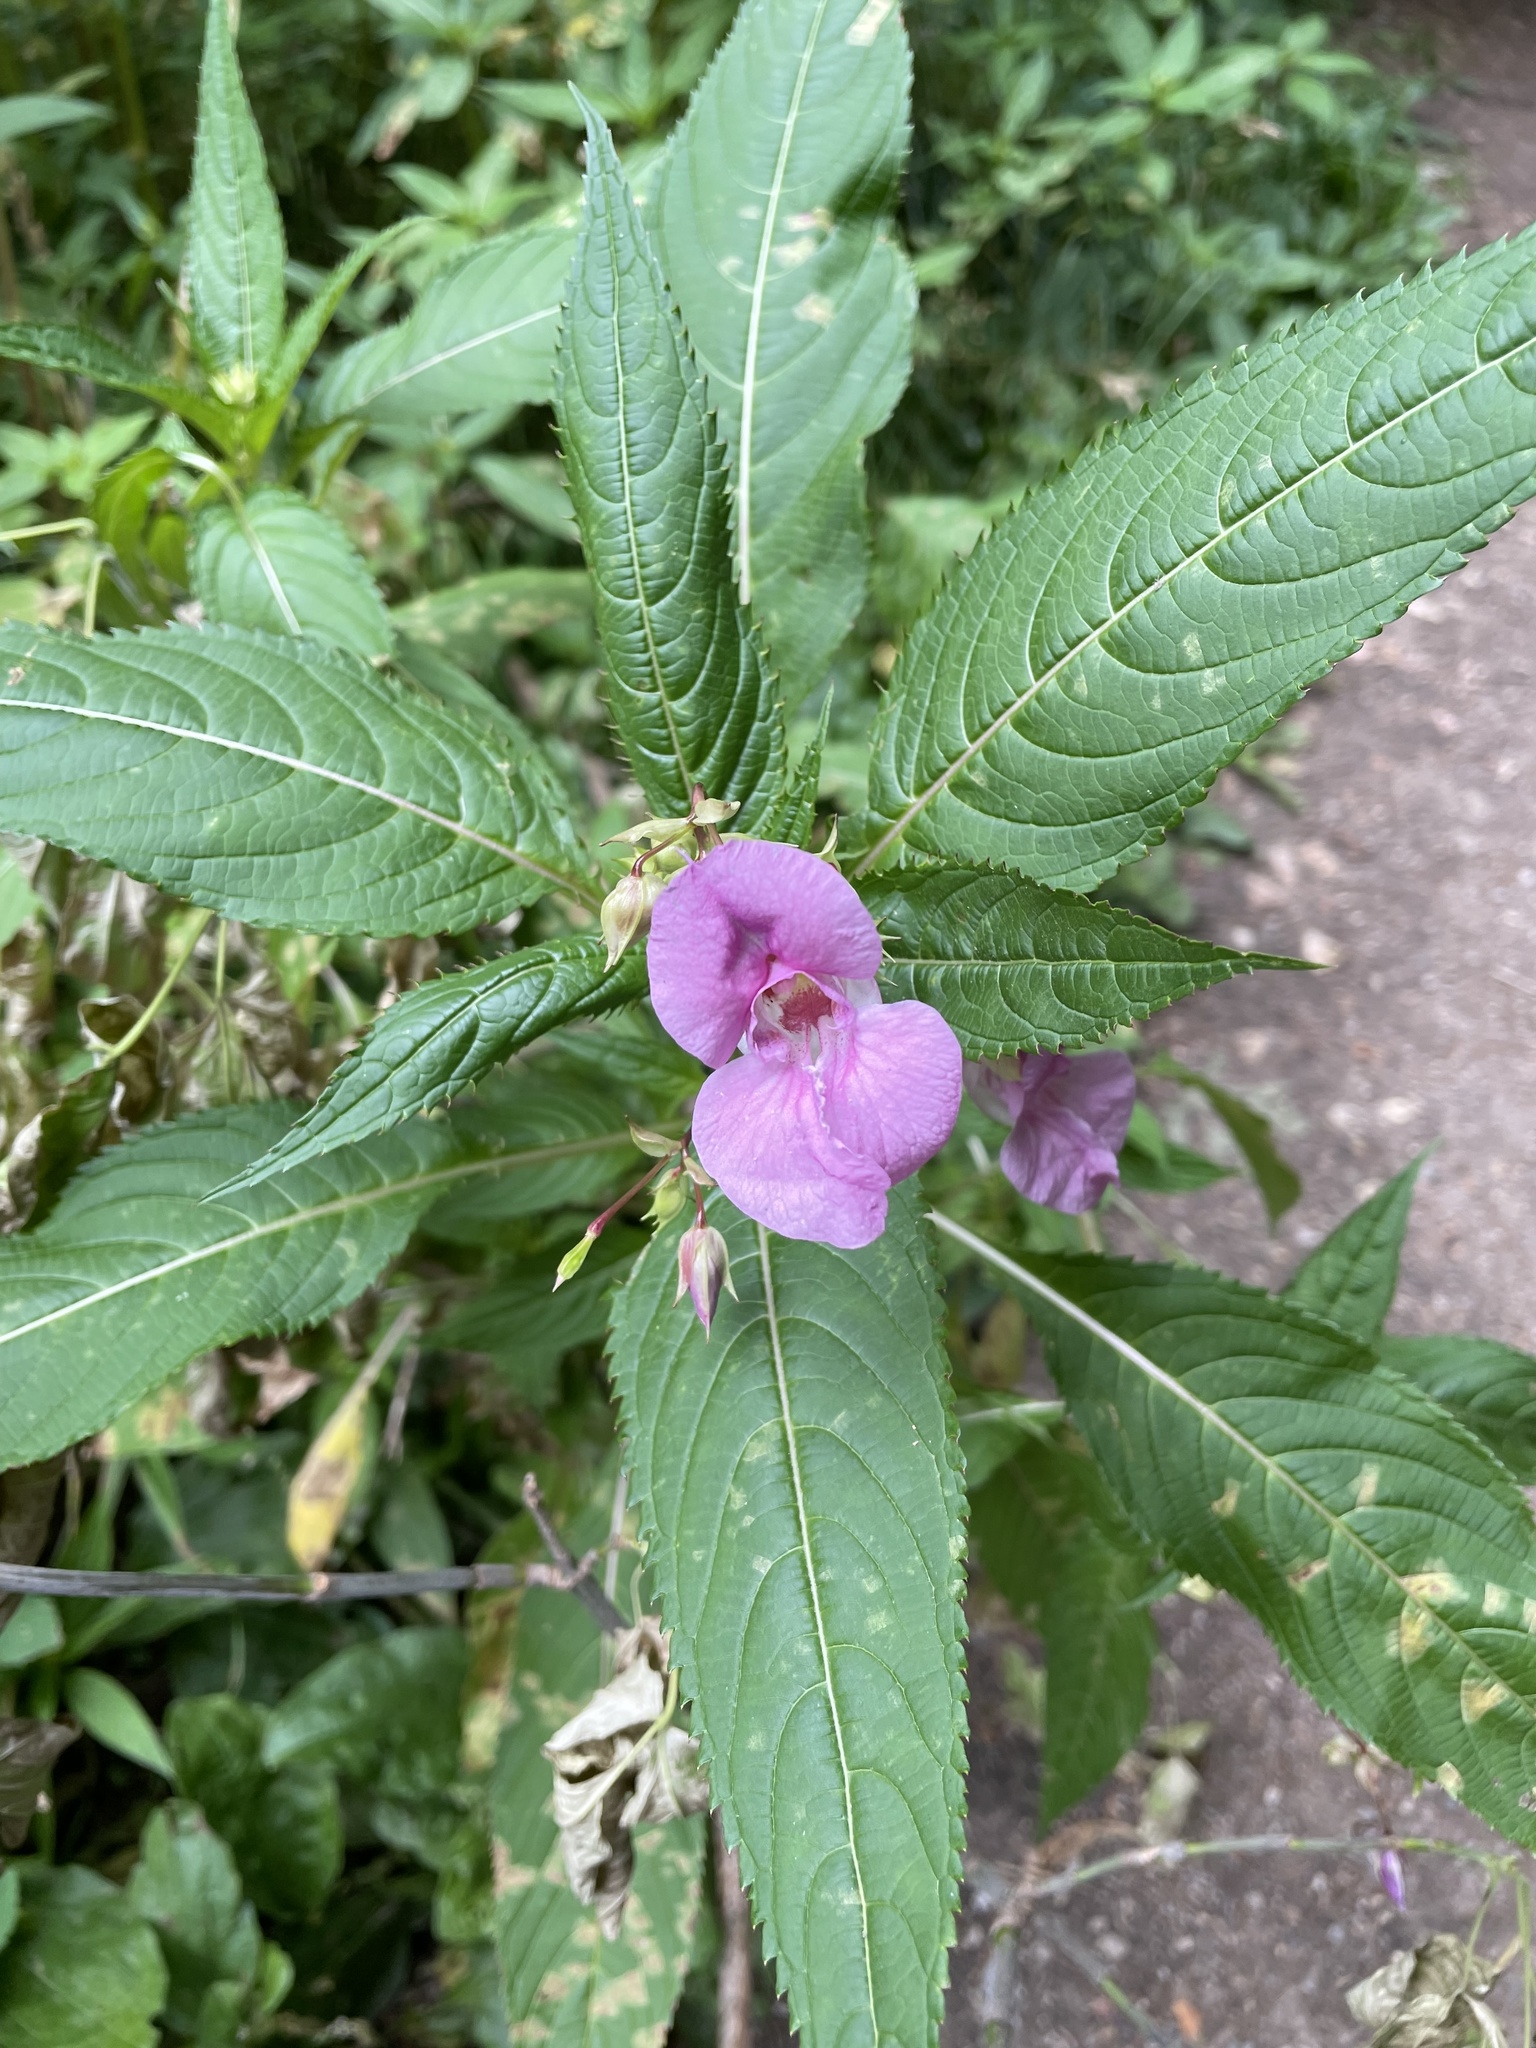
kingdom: Plantae
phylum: Tracheophyta
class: Magnoliopsida
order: Ericales
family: Balsaminaceae
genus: Impatiens
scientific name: Impatiens glandulifera
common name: Himalayan balsam
